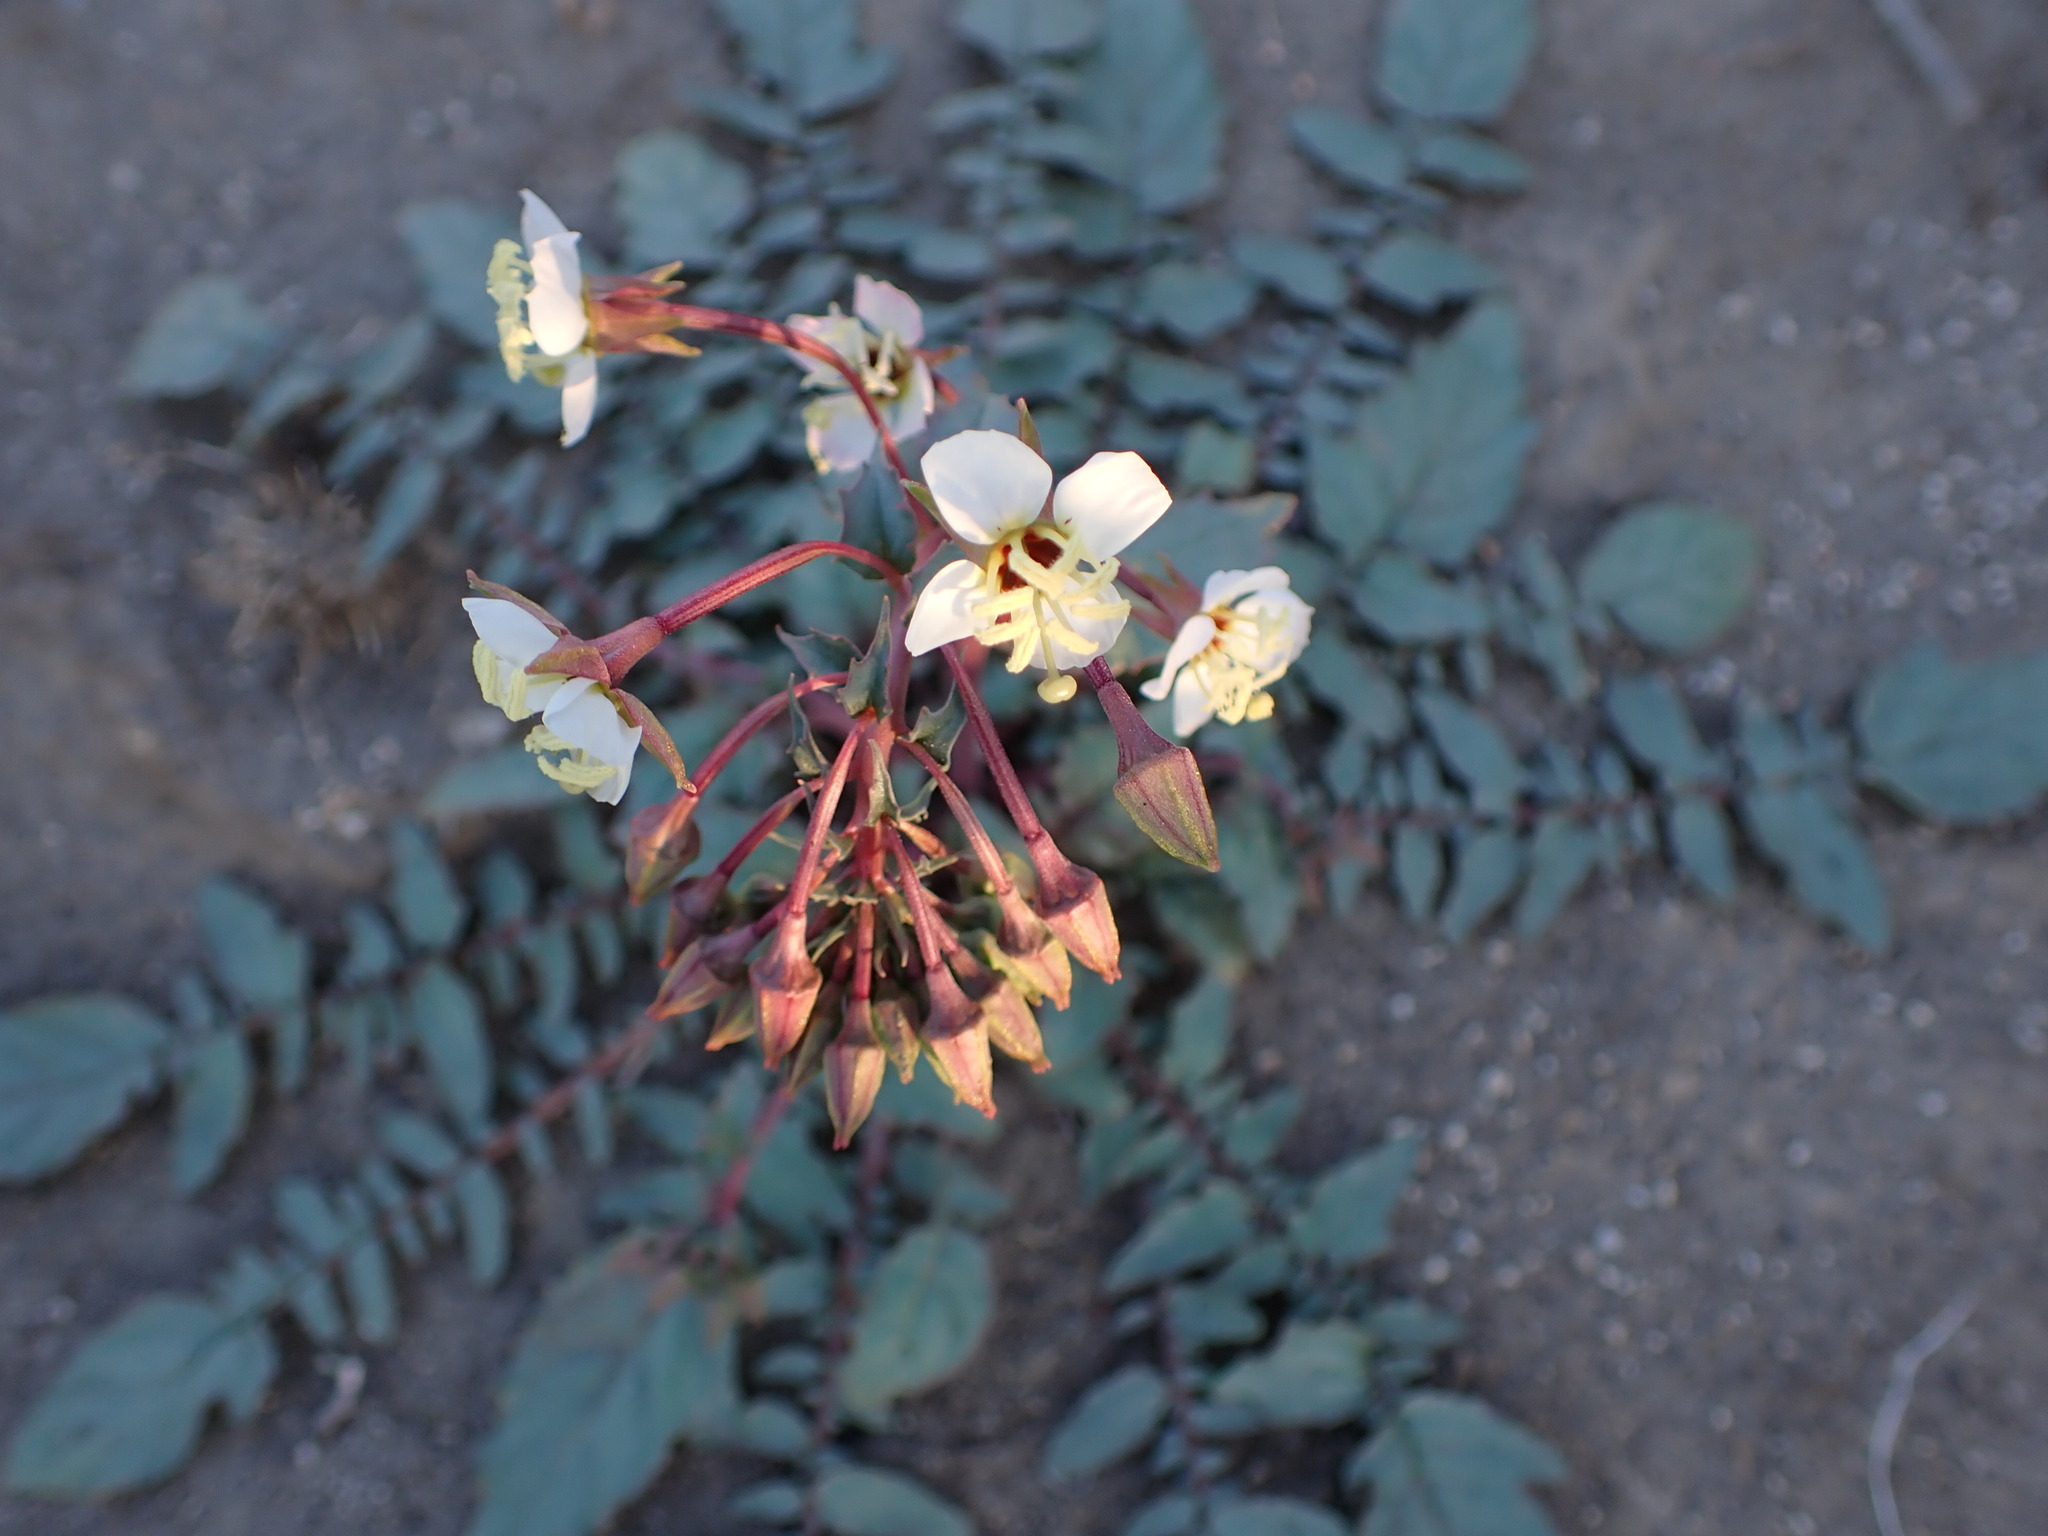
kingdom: Plantae
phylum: Tracheophyta
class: Magnoliopsida
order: Myrtales
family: Onagraceae
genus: Chylismia
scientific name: Chylismia claviformis
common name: Browneyes
